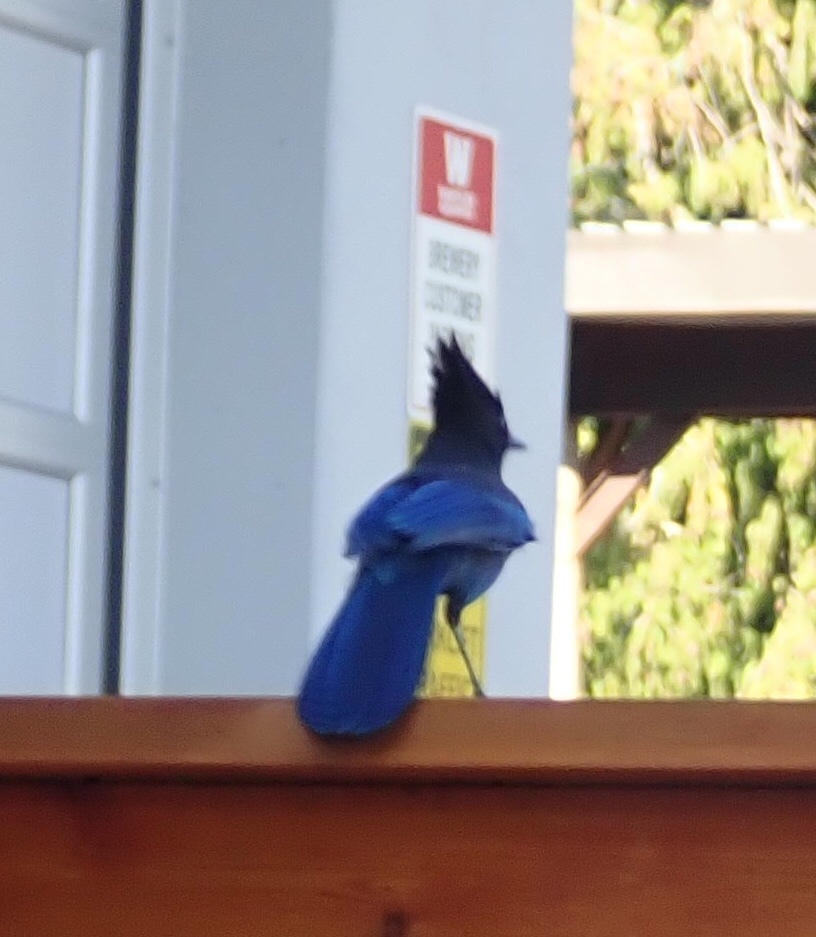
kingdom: Animalia
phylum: Chordata
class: Aves
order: Passeriformes
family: Corvidae
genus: Cyanocitta
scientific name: Cyanocitta stelleri
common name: Steller's jay
